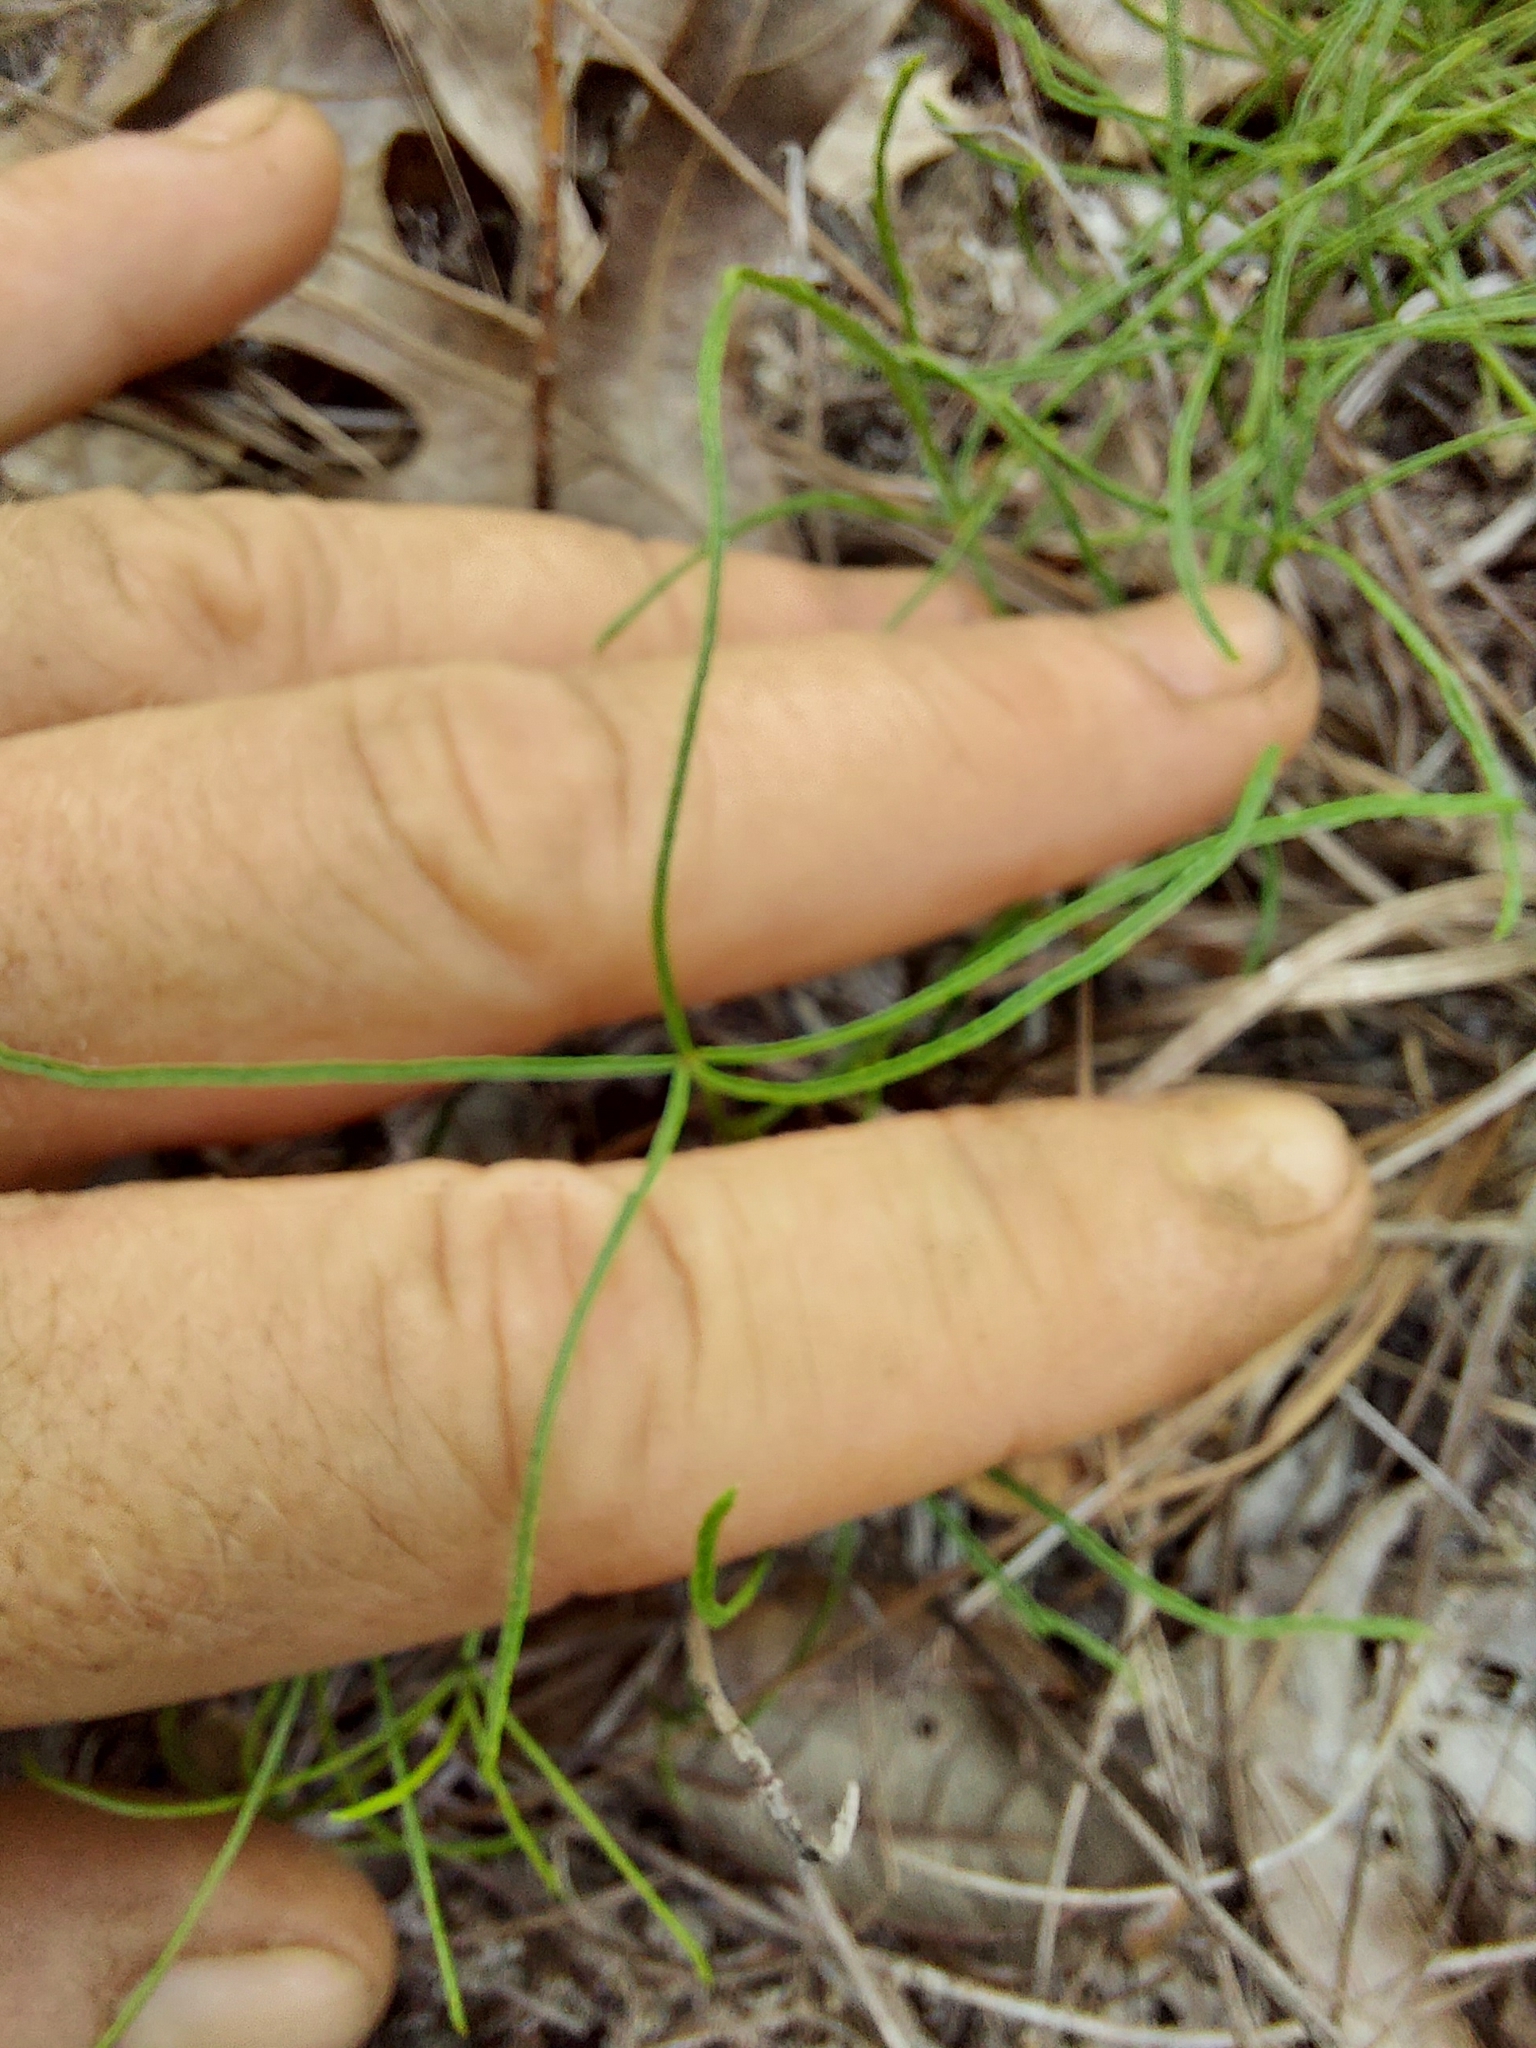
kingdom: Plantae
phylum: Tracheophyta
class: Magnoliopsida
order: Fabales
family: Fabaceae
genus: Orbexilum
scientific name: Orbexilum lupinellus
